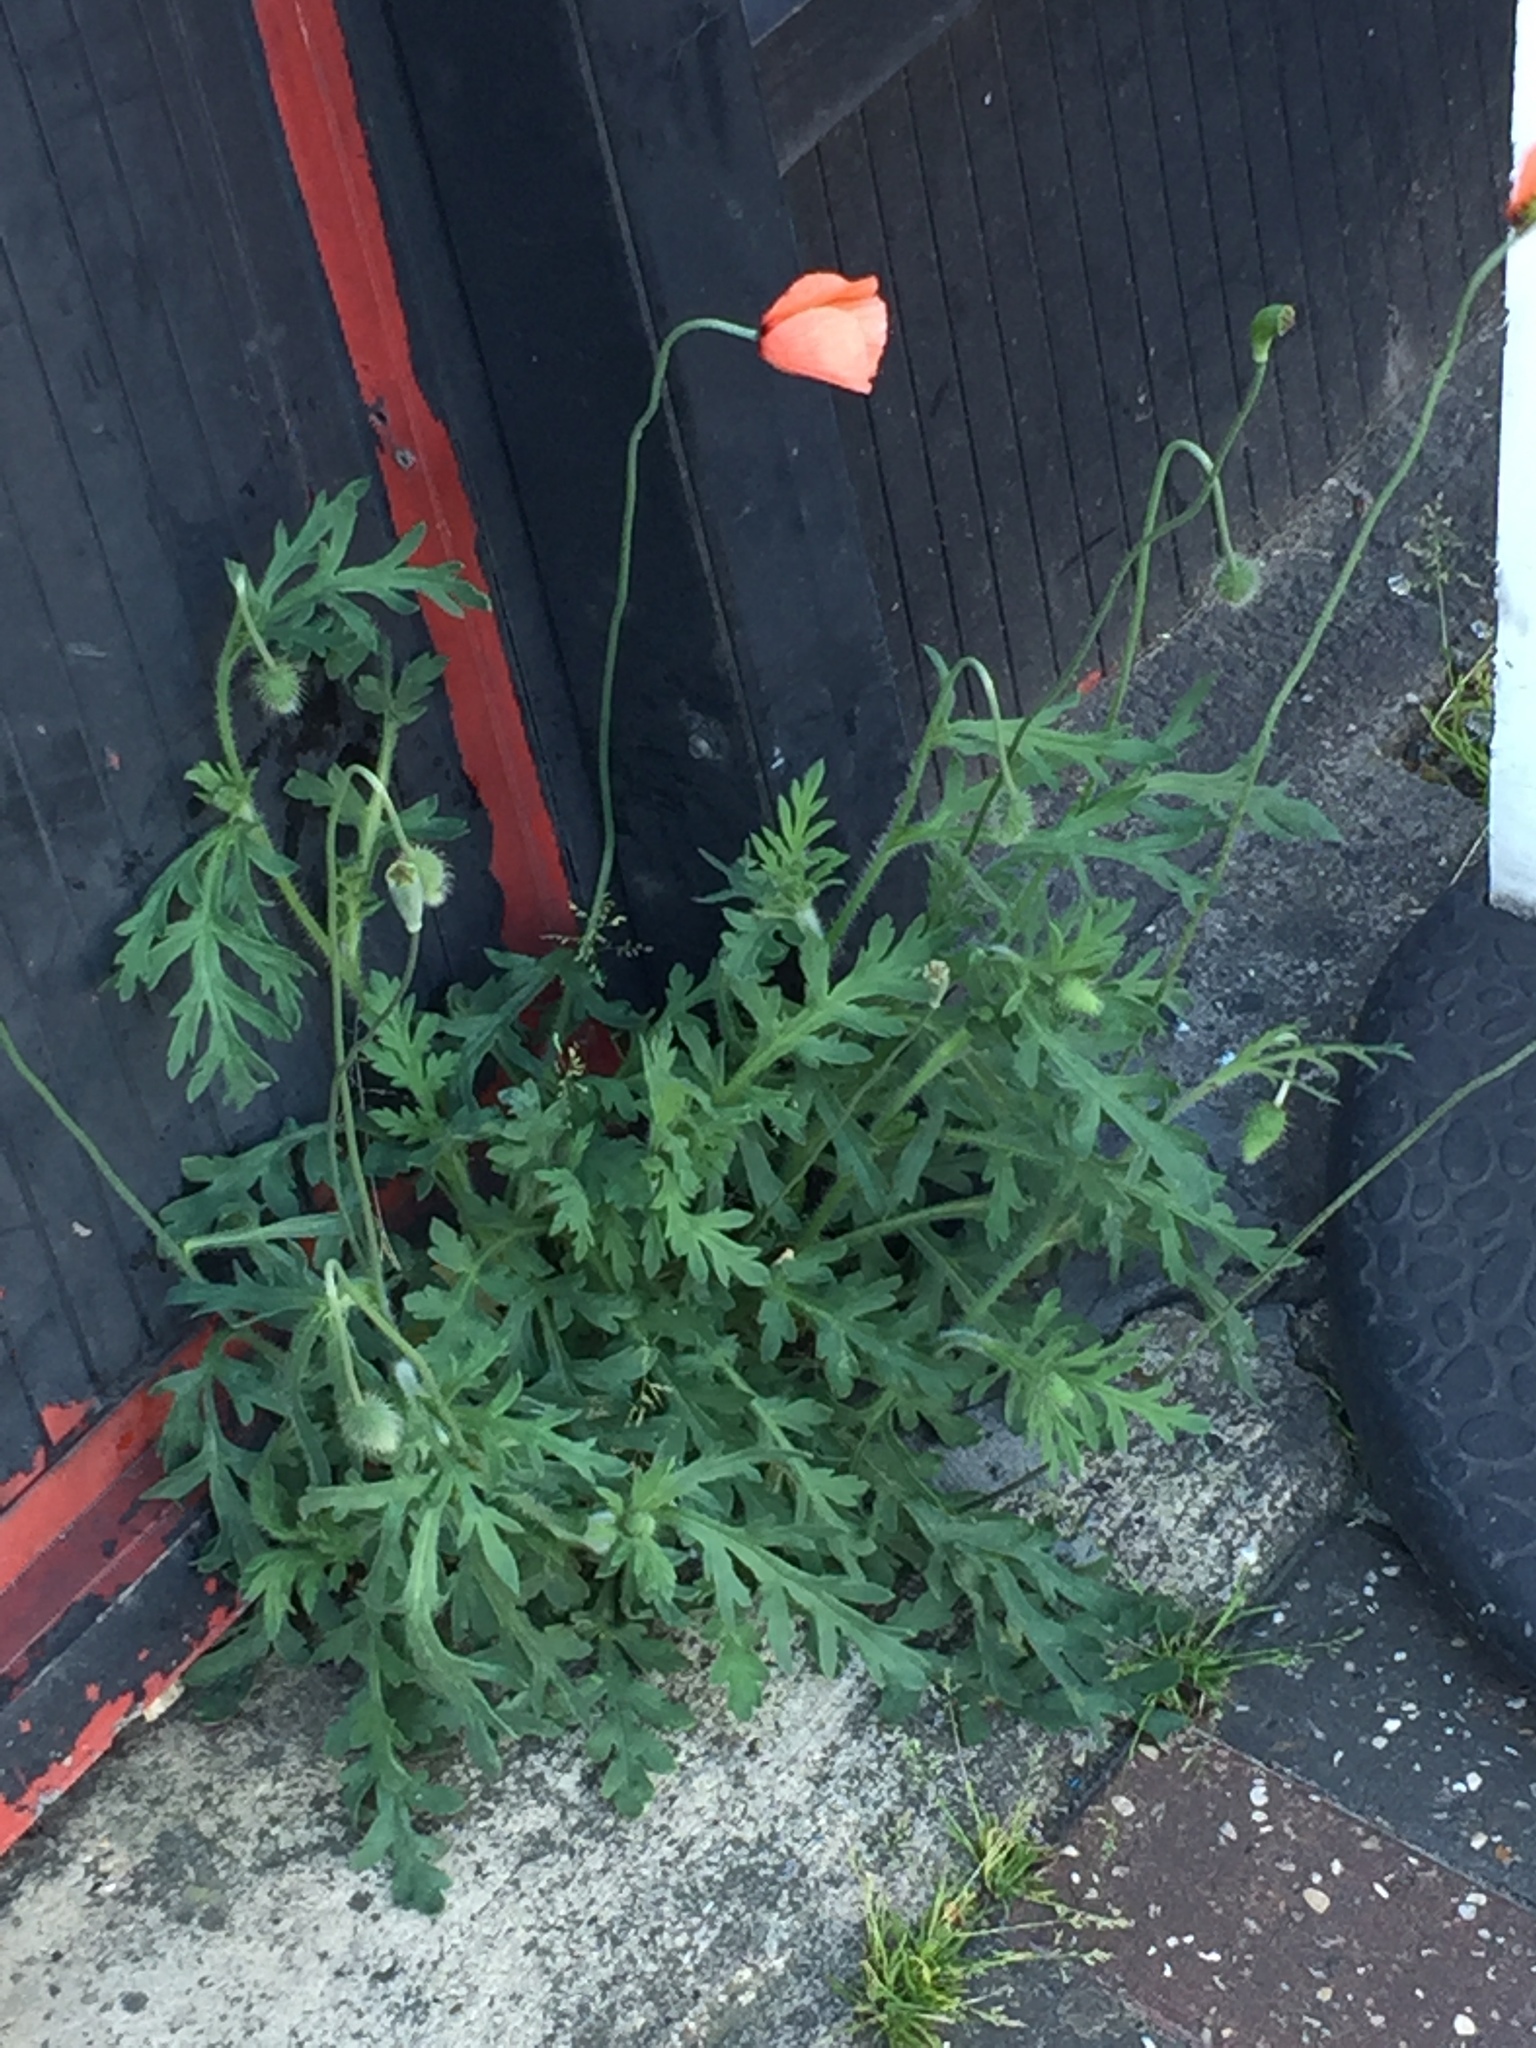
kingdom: Plantae
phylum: Tracheophyta
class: Magnoliopsida
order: Ranunculales
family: Papaveraceae
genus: Papaver
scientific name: Papaver dubium
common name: Long-headed poppy
